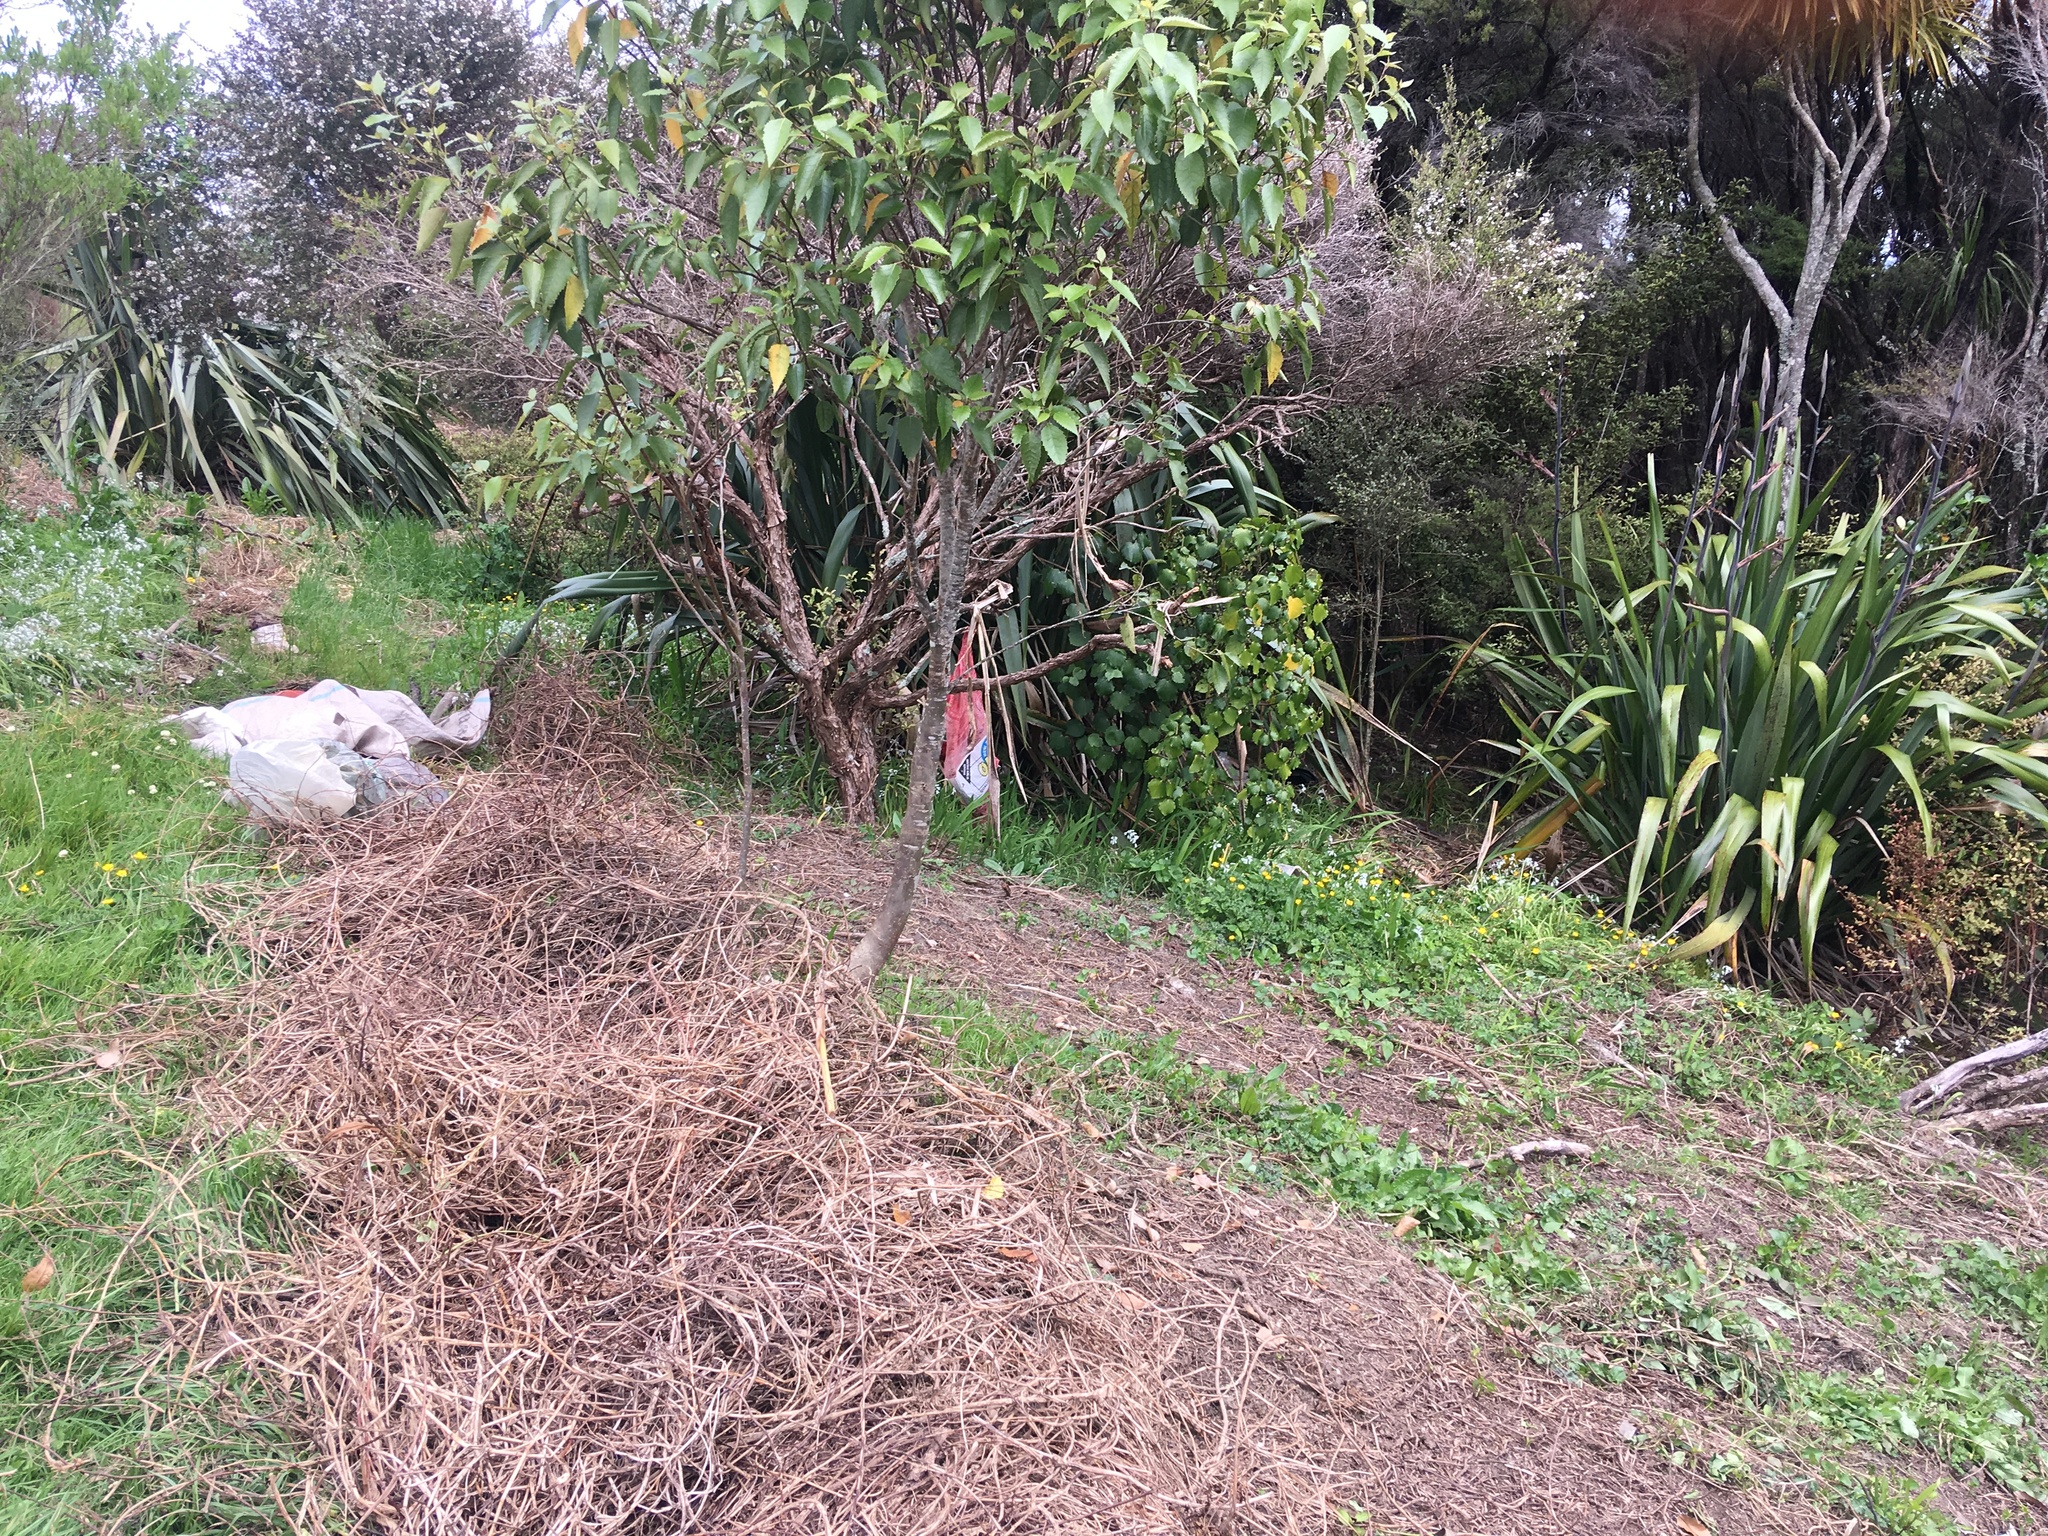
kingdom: Plantae
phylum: Tracheophyta
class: Magnoliopsida
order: Piperales
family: Piperaceae
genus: Macropiper
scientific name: Macropiper excelsum
